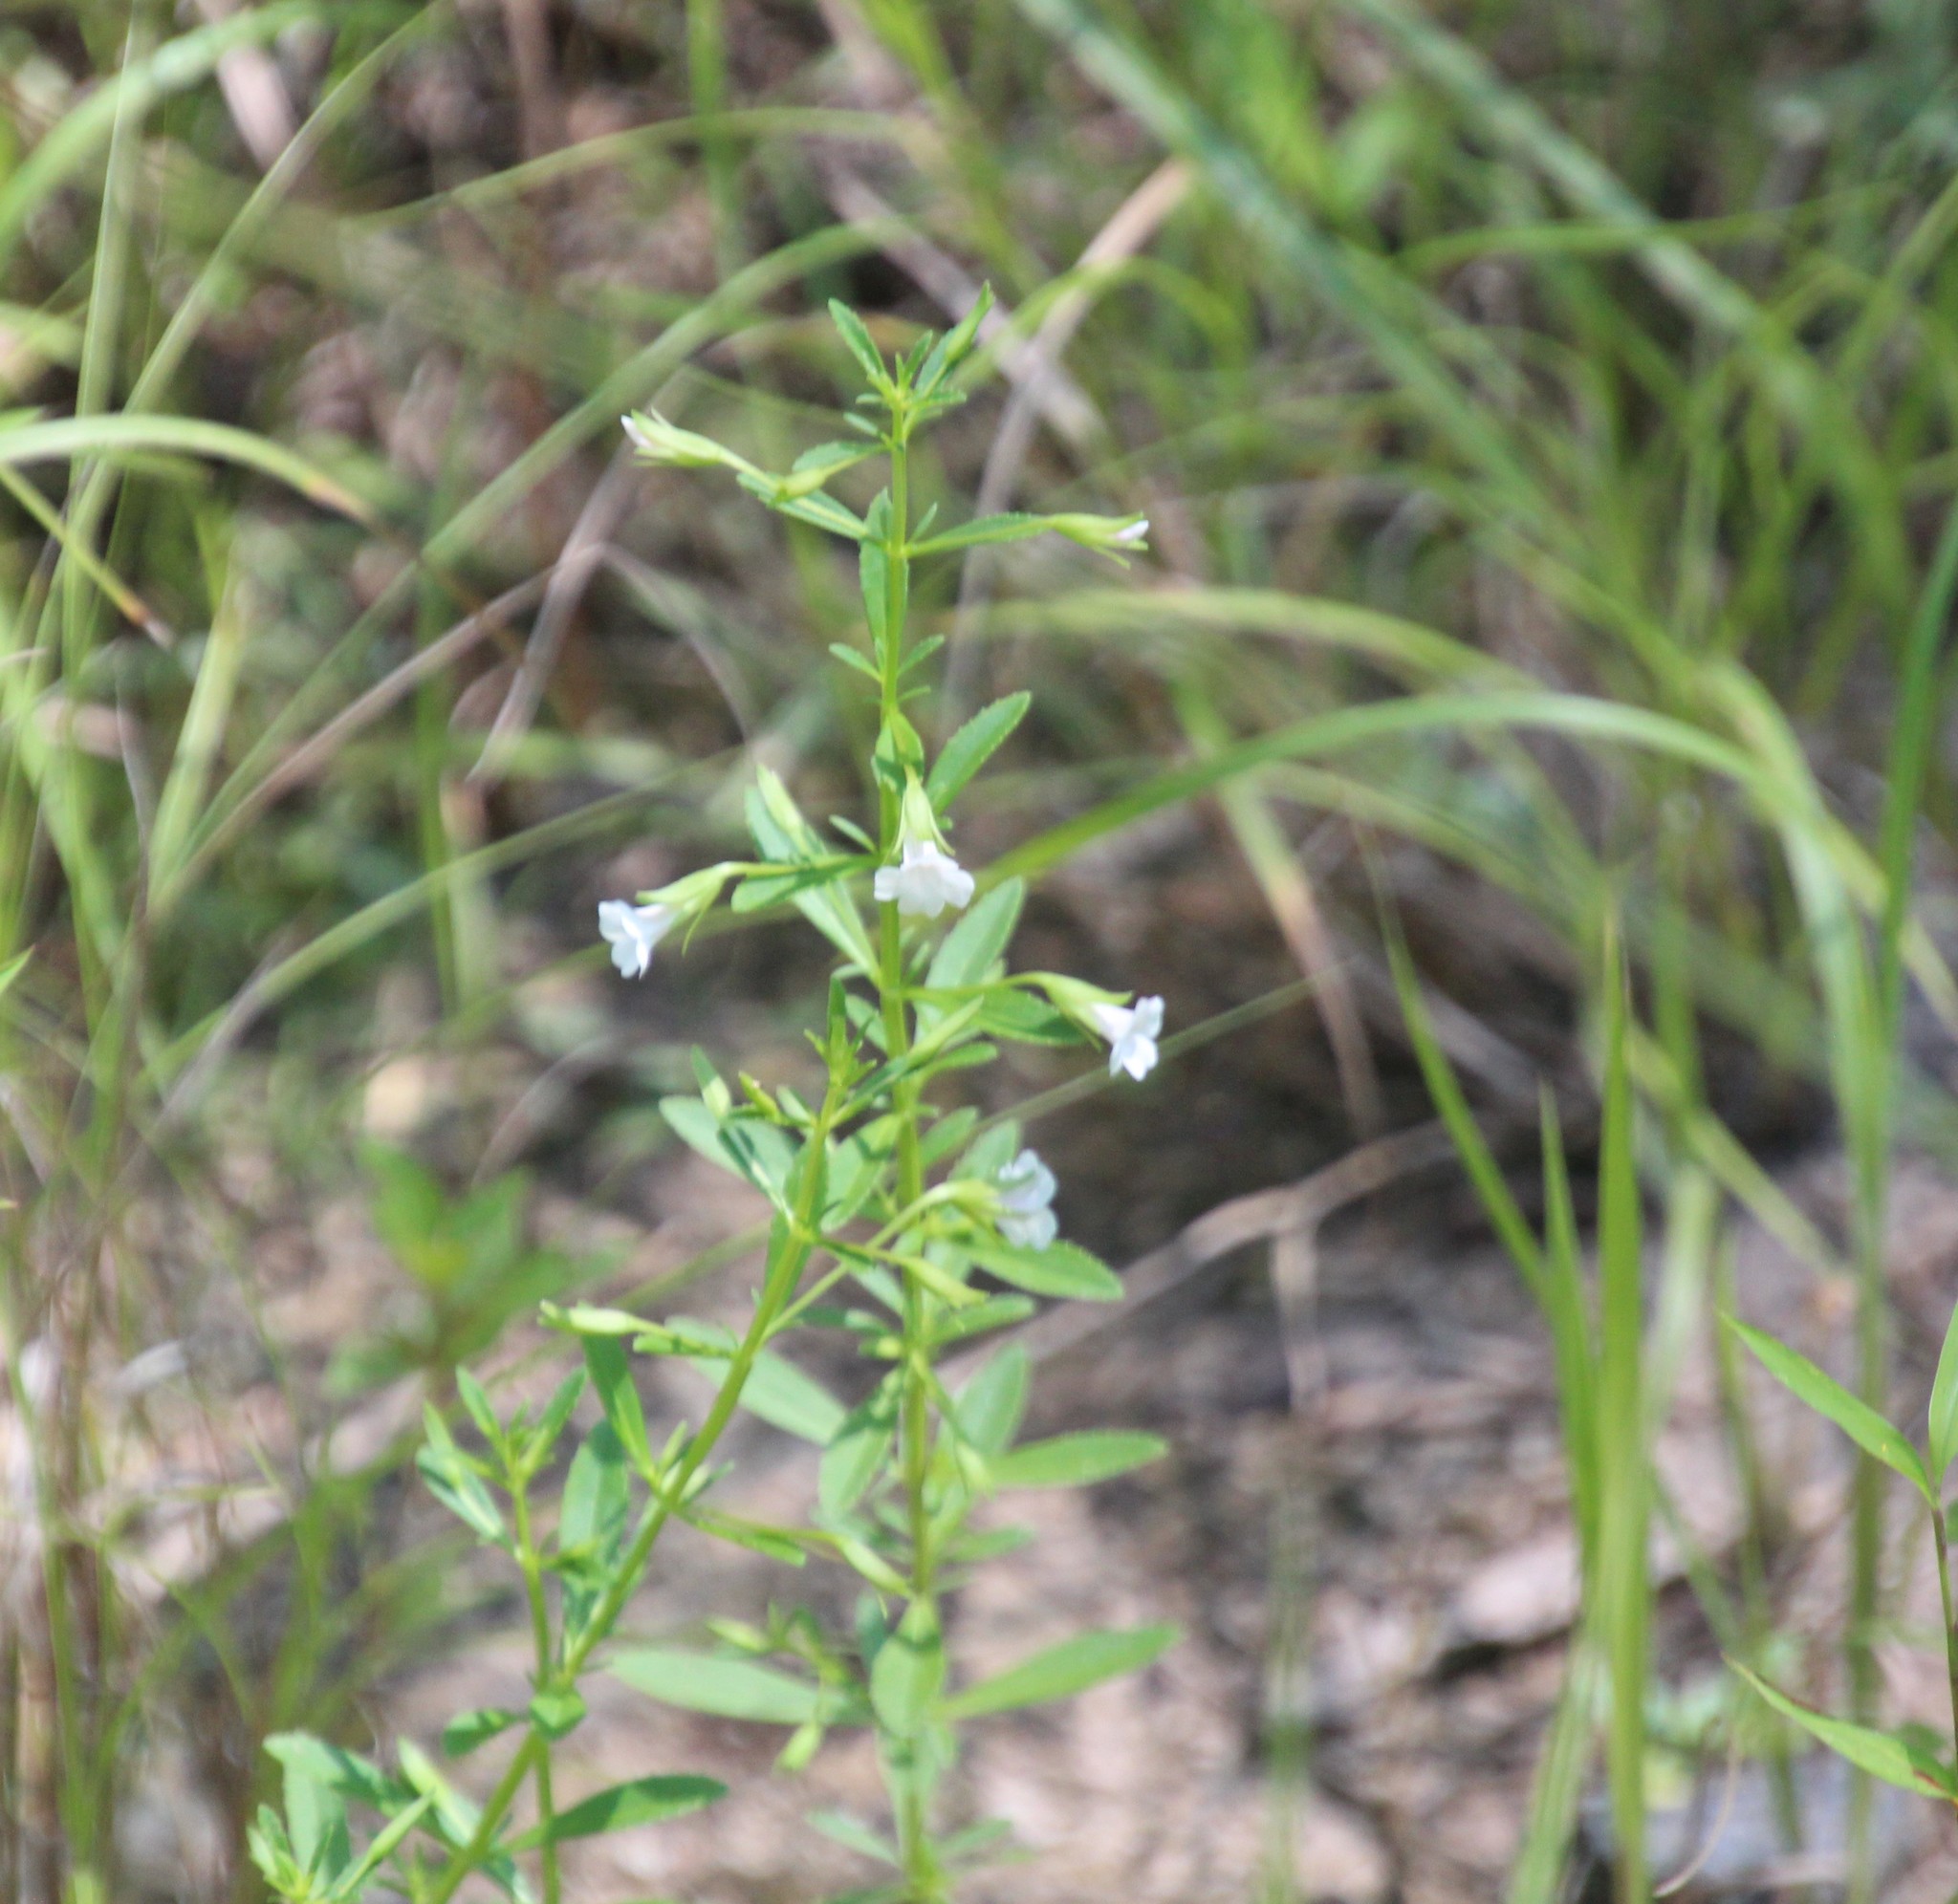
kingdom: Plantae
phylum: Tracheophyta
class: Magnoliopsida
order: Lamiales
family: Plantaginaceae
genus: Mecardonia
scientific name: Mecardonia acuminata
